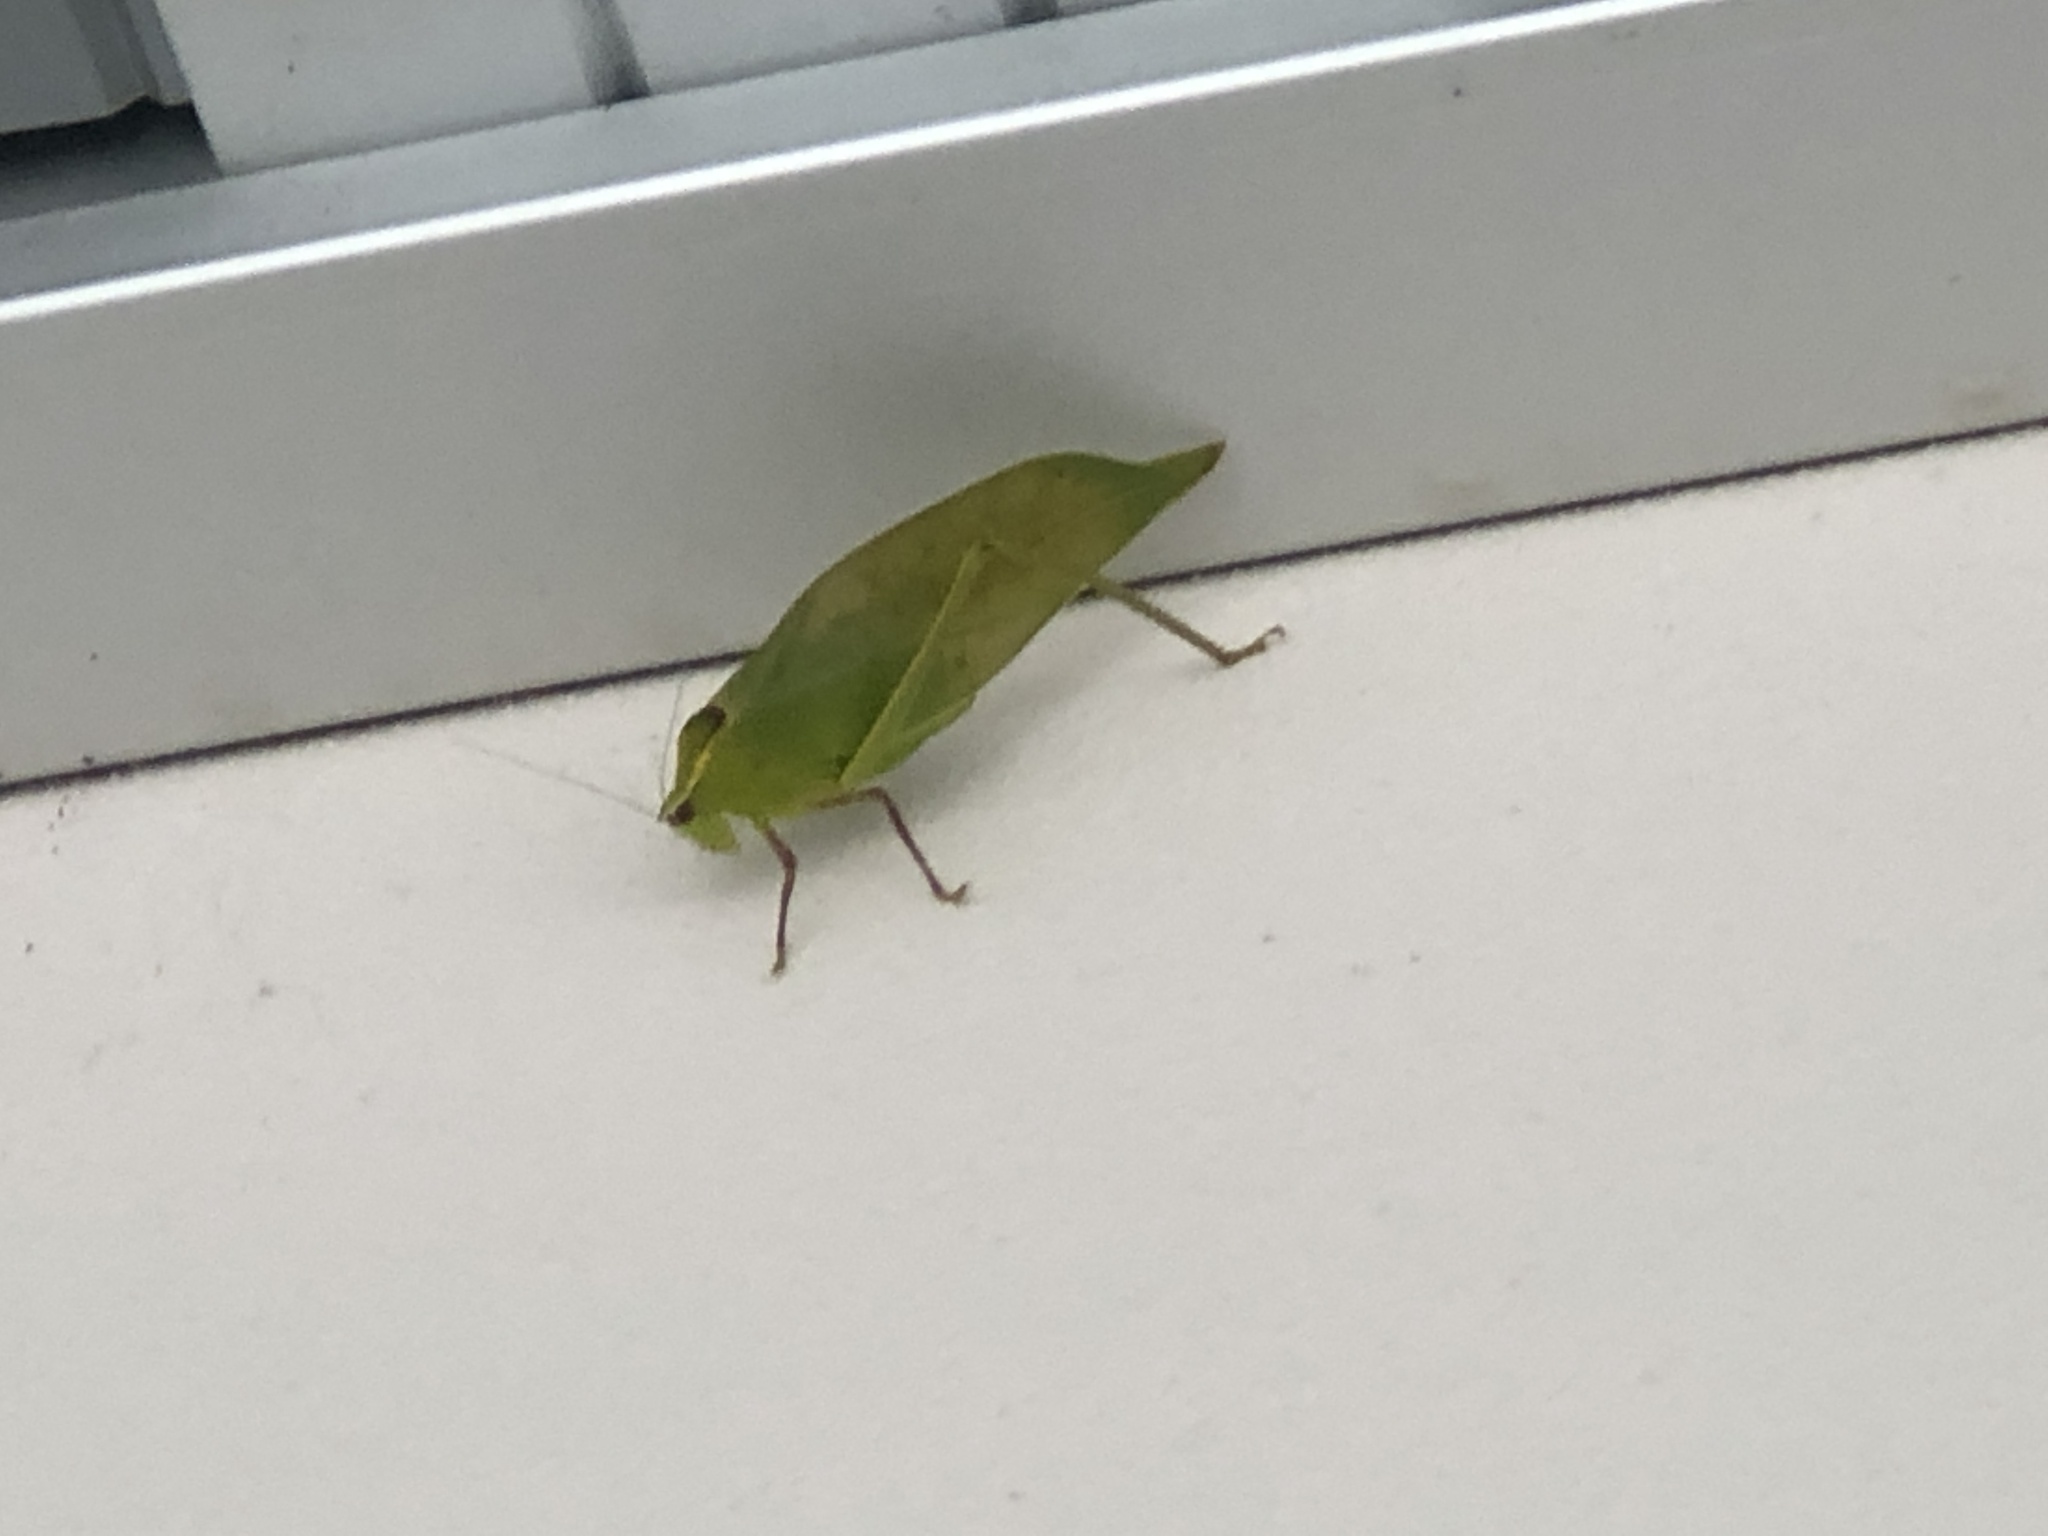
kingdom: Animalia
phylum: Arthropoda
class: Insecta
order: Orthoptera
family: Tettigoniidae
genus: Stilpnochlora
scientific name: Stilpnochlora couloniana
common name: Giant katydid
